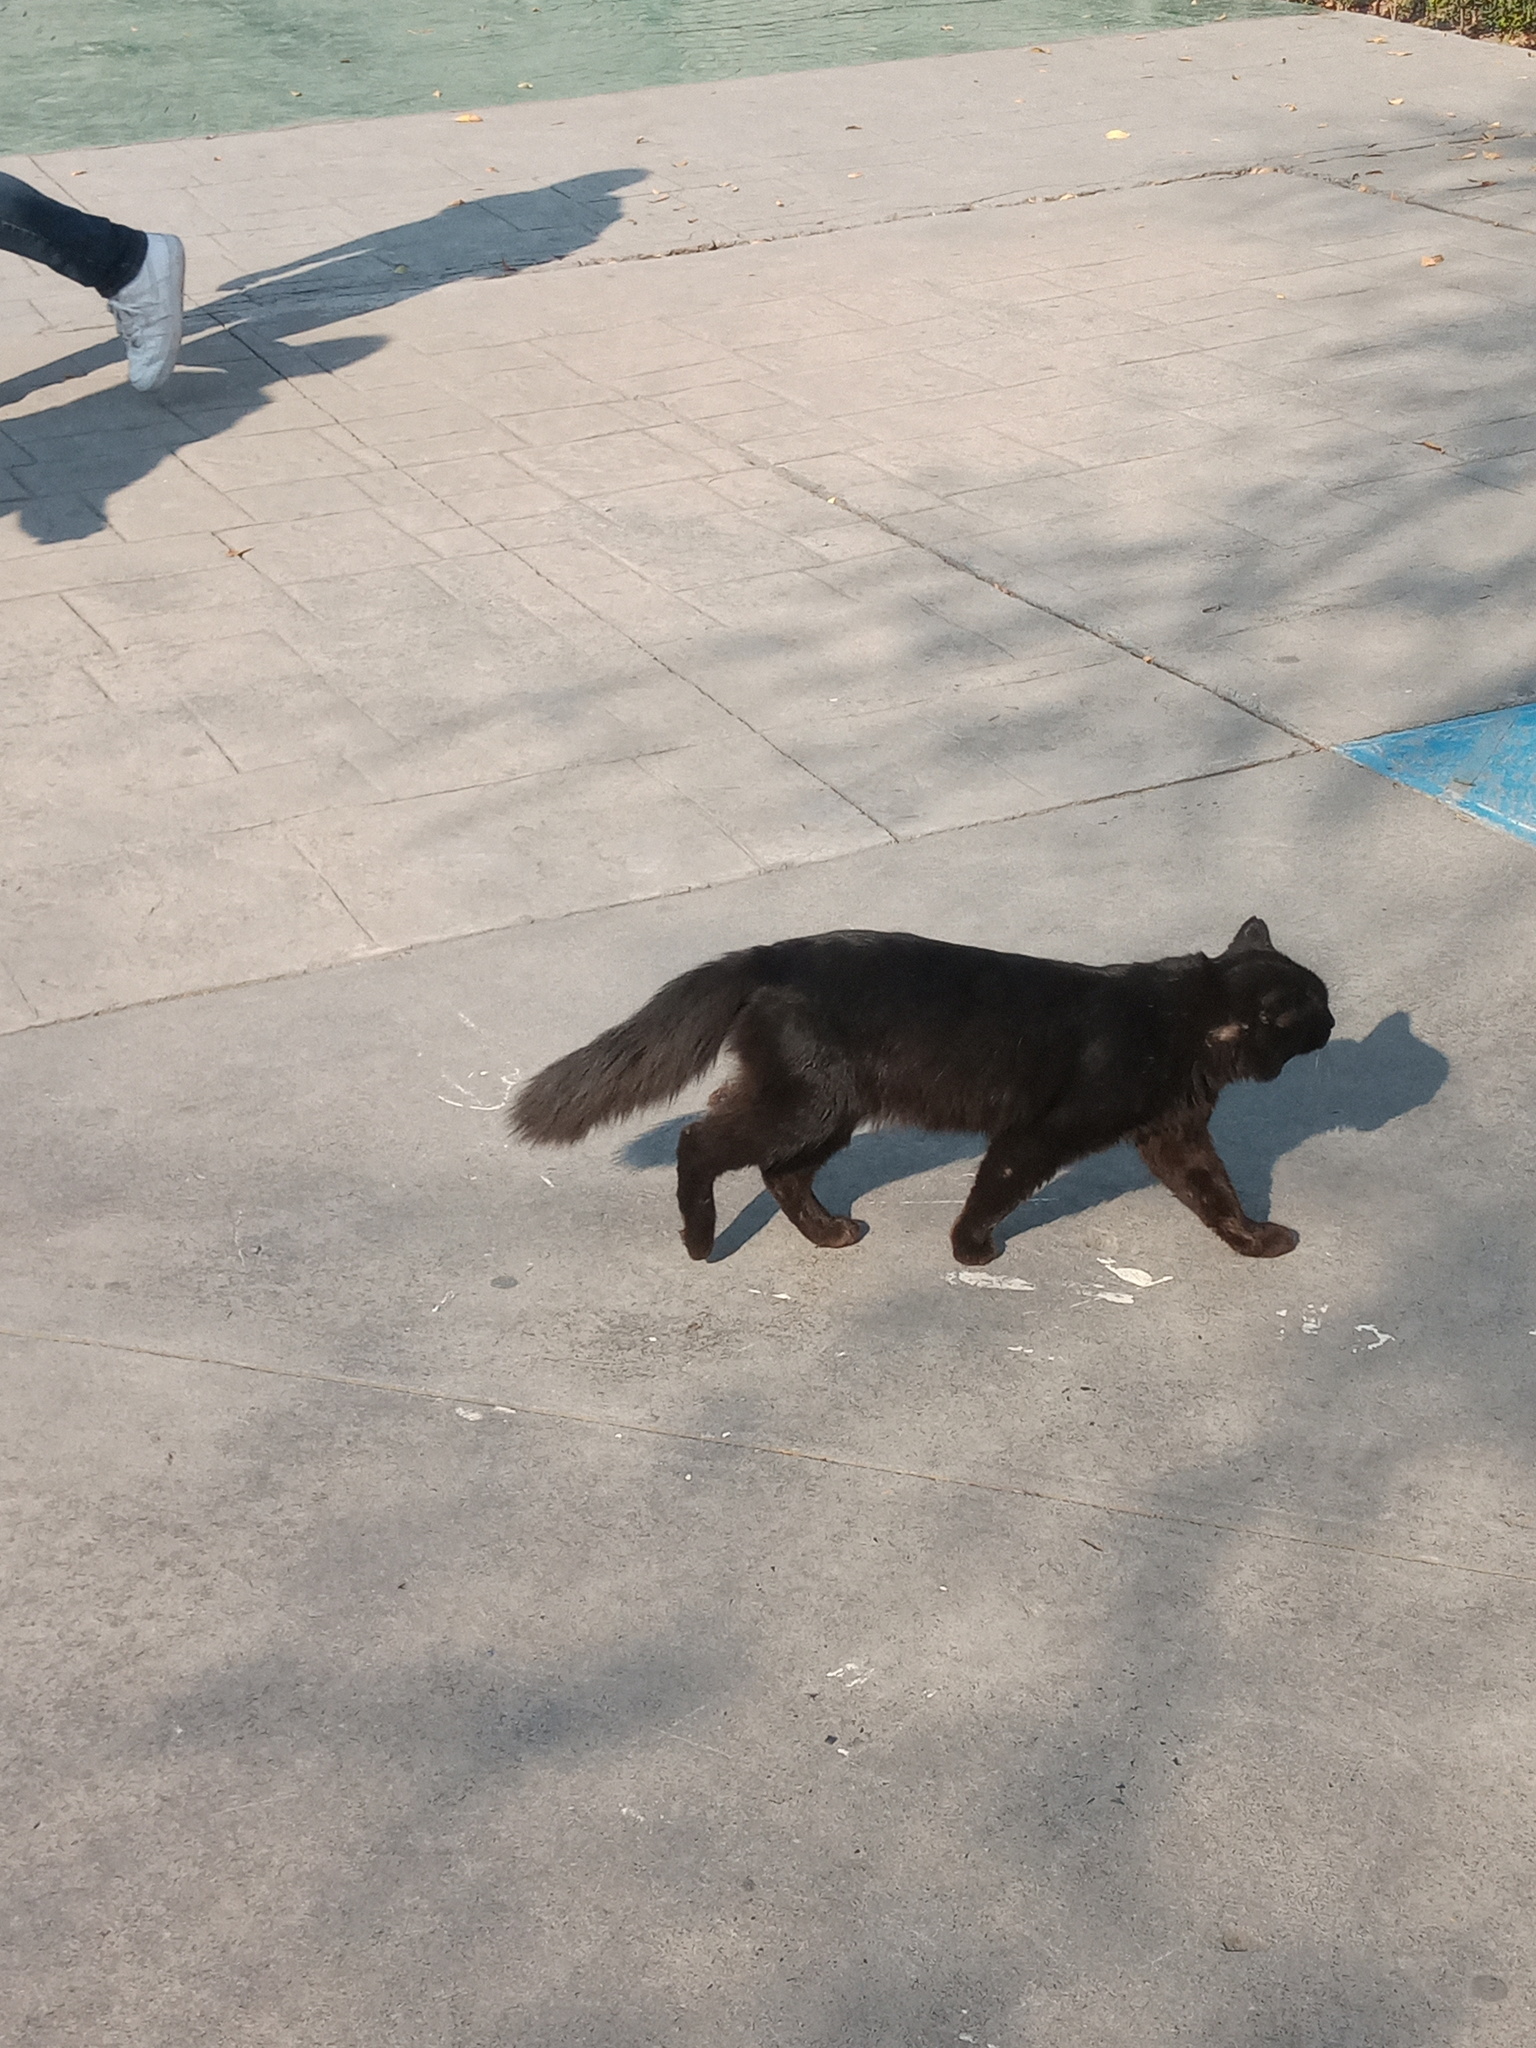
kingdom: Animalia
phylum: Chordata
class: Mammalia
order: Carnivora
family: Felidae
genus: Felis
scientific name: Felis catus
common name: Domestic cat
